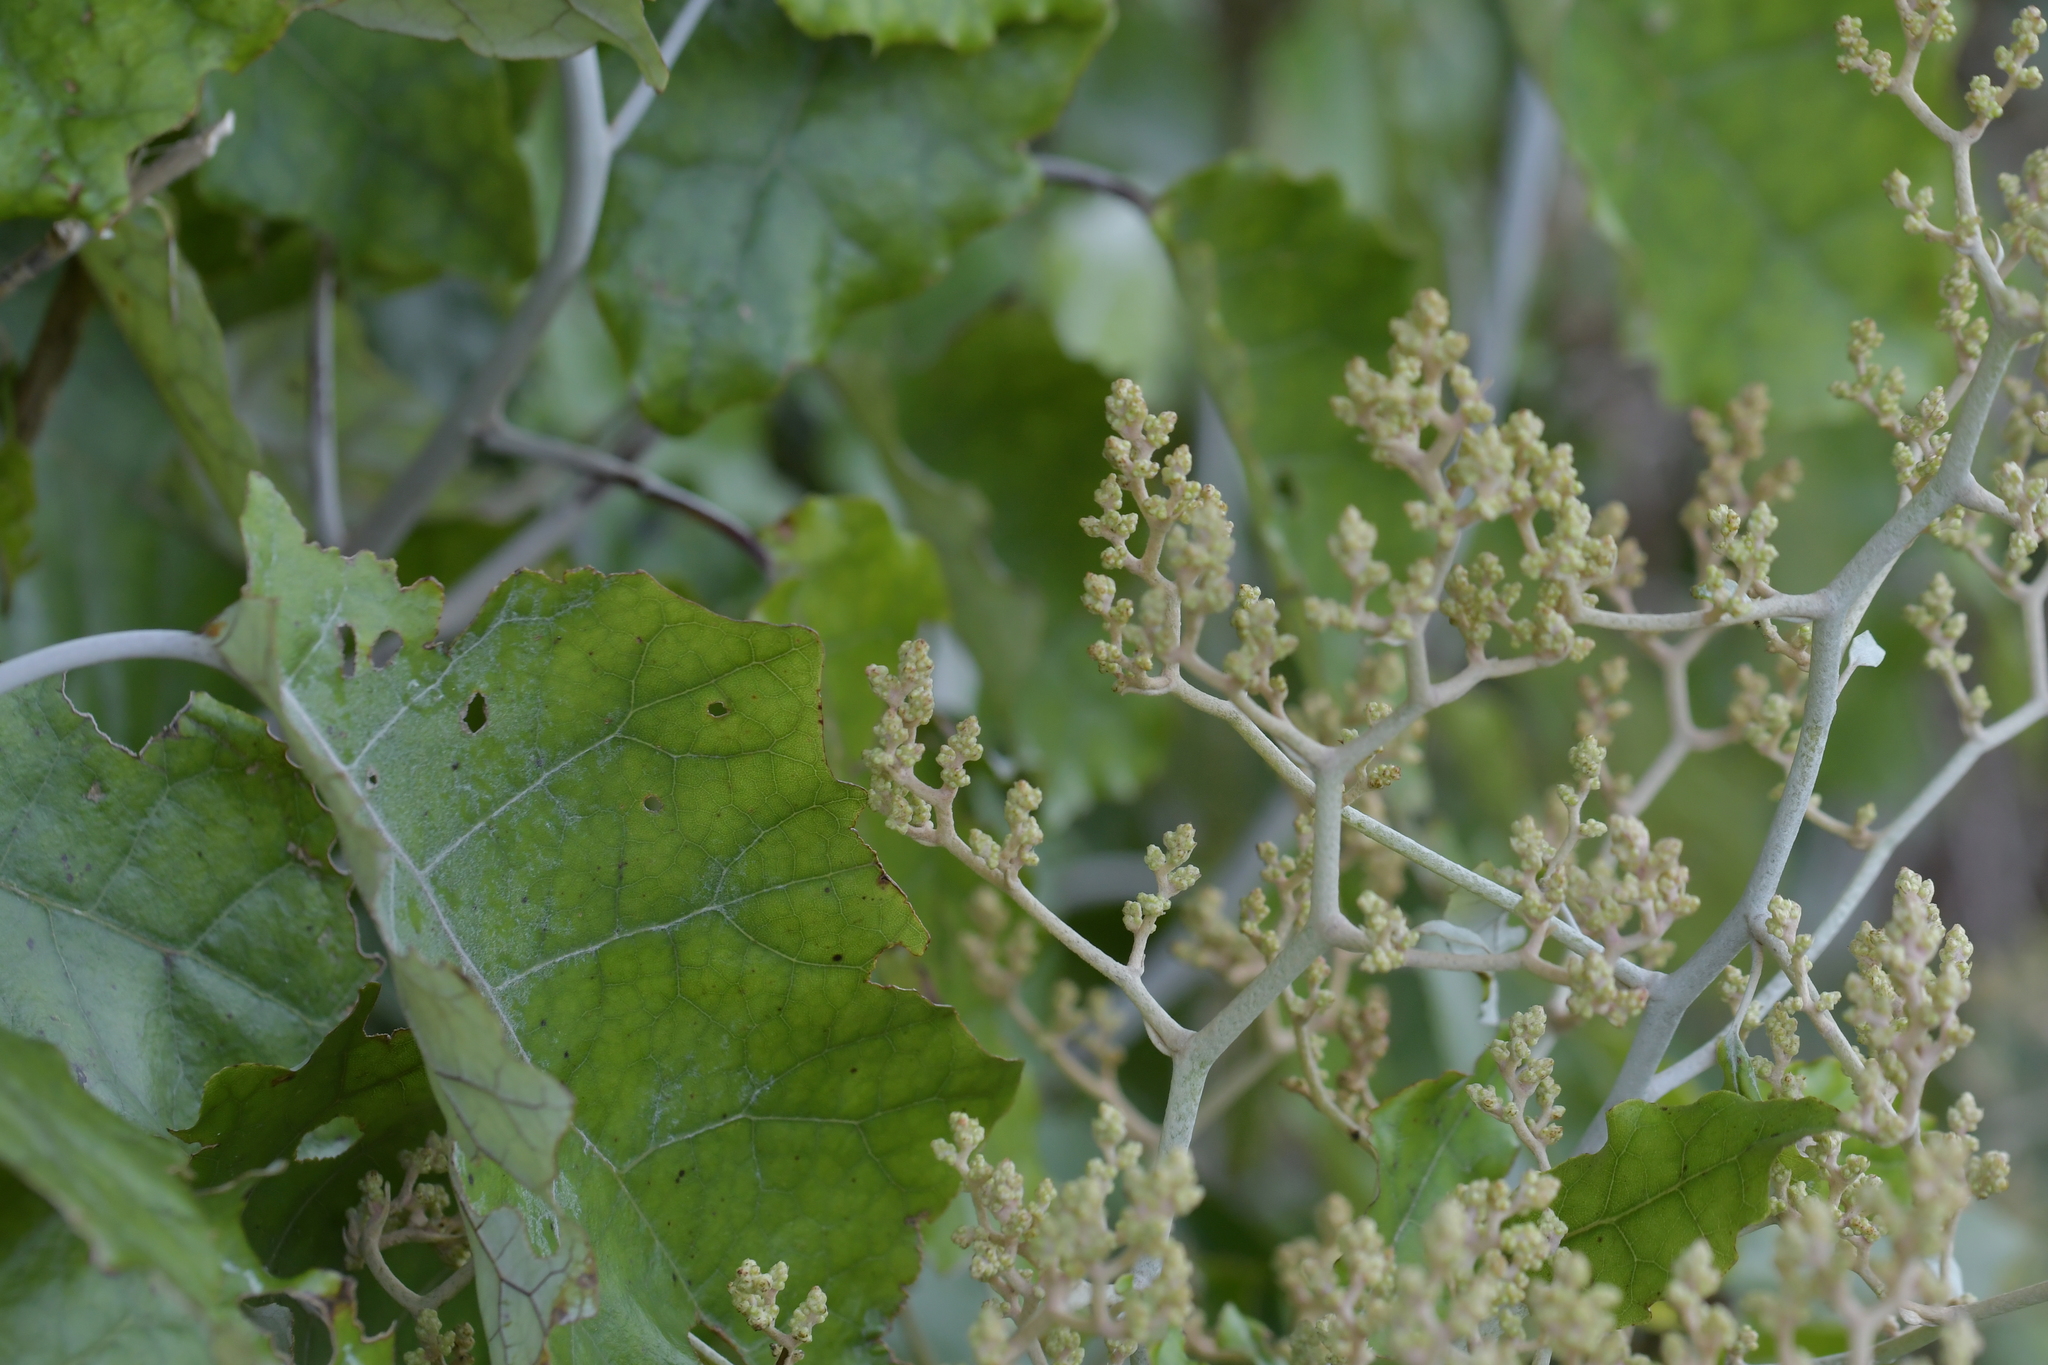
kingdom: Plantae
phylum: Tracheophyta
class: Magnoliopsida
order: Asterales
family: Asteraceae
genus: Brachyglottis
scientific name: Brachyglottis repanda
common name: Hedge ragwort
